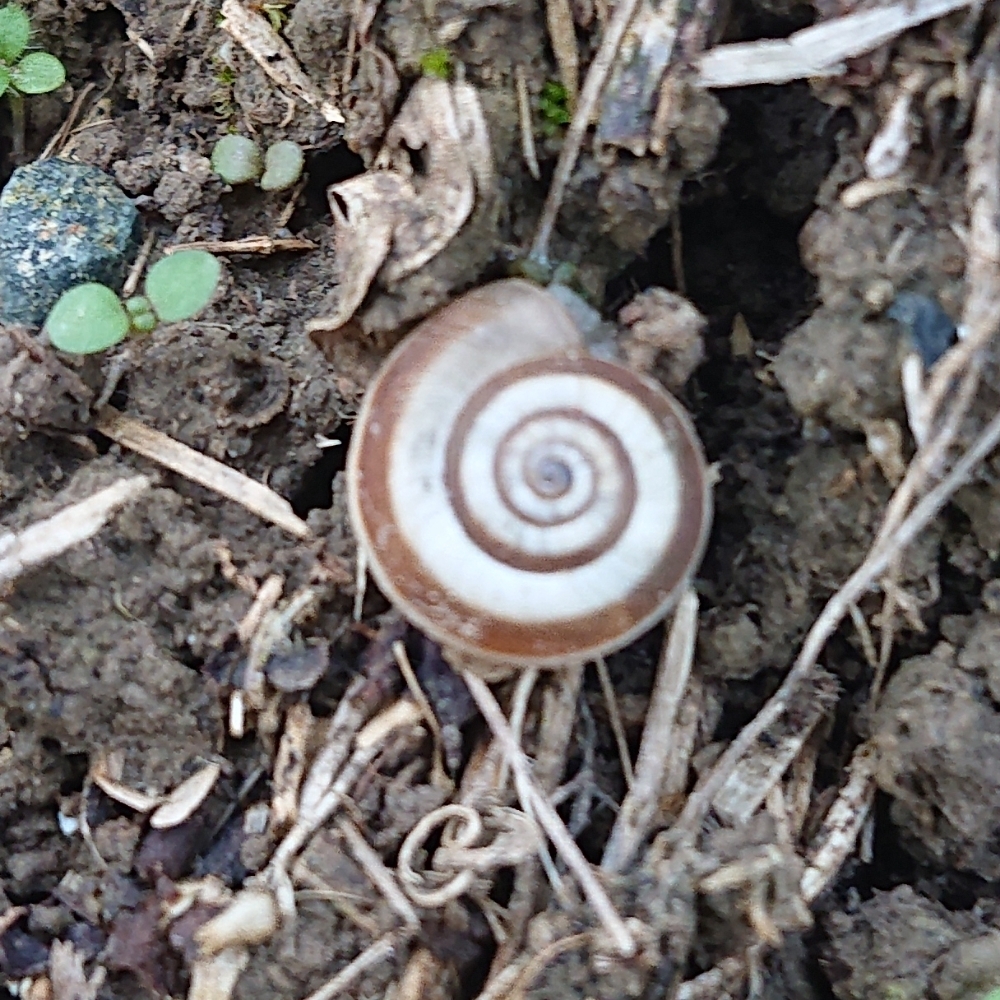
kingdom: Animalia
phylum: Mollusca
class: Gastropoda
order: Stylommatophora
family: Geomitridae
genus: Helicella
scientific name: Helicella itala
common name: Heath snail
